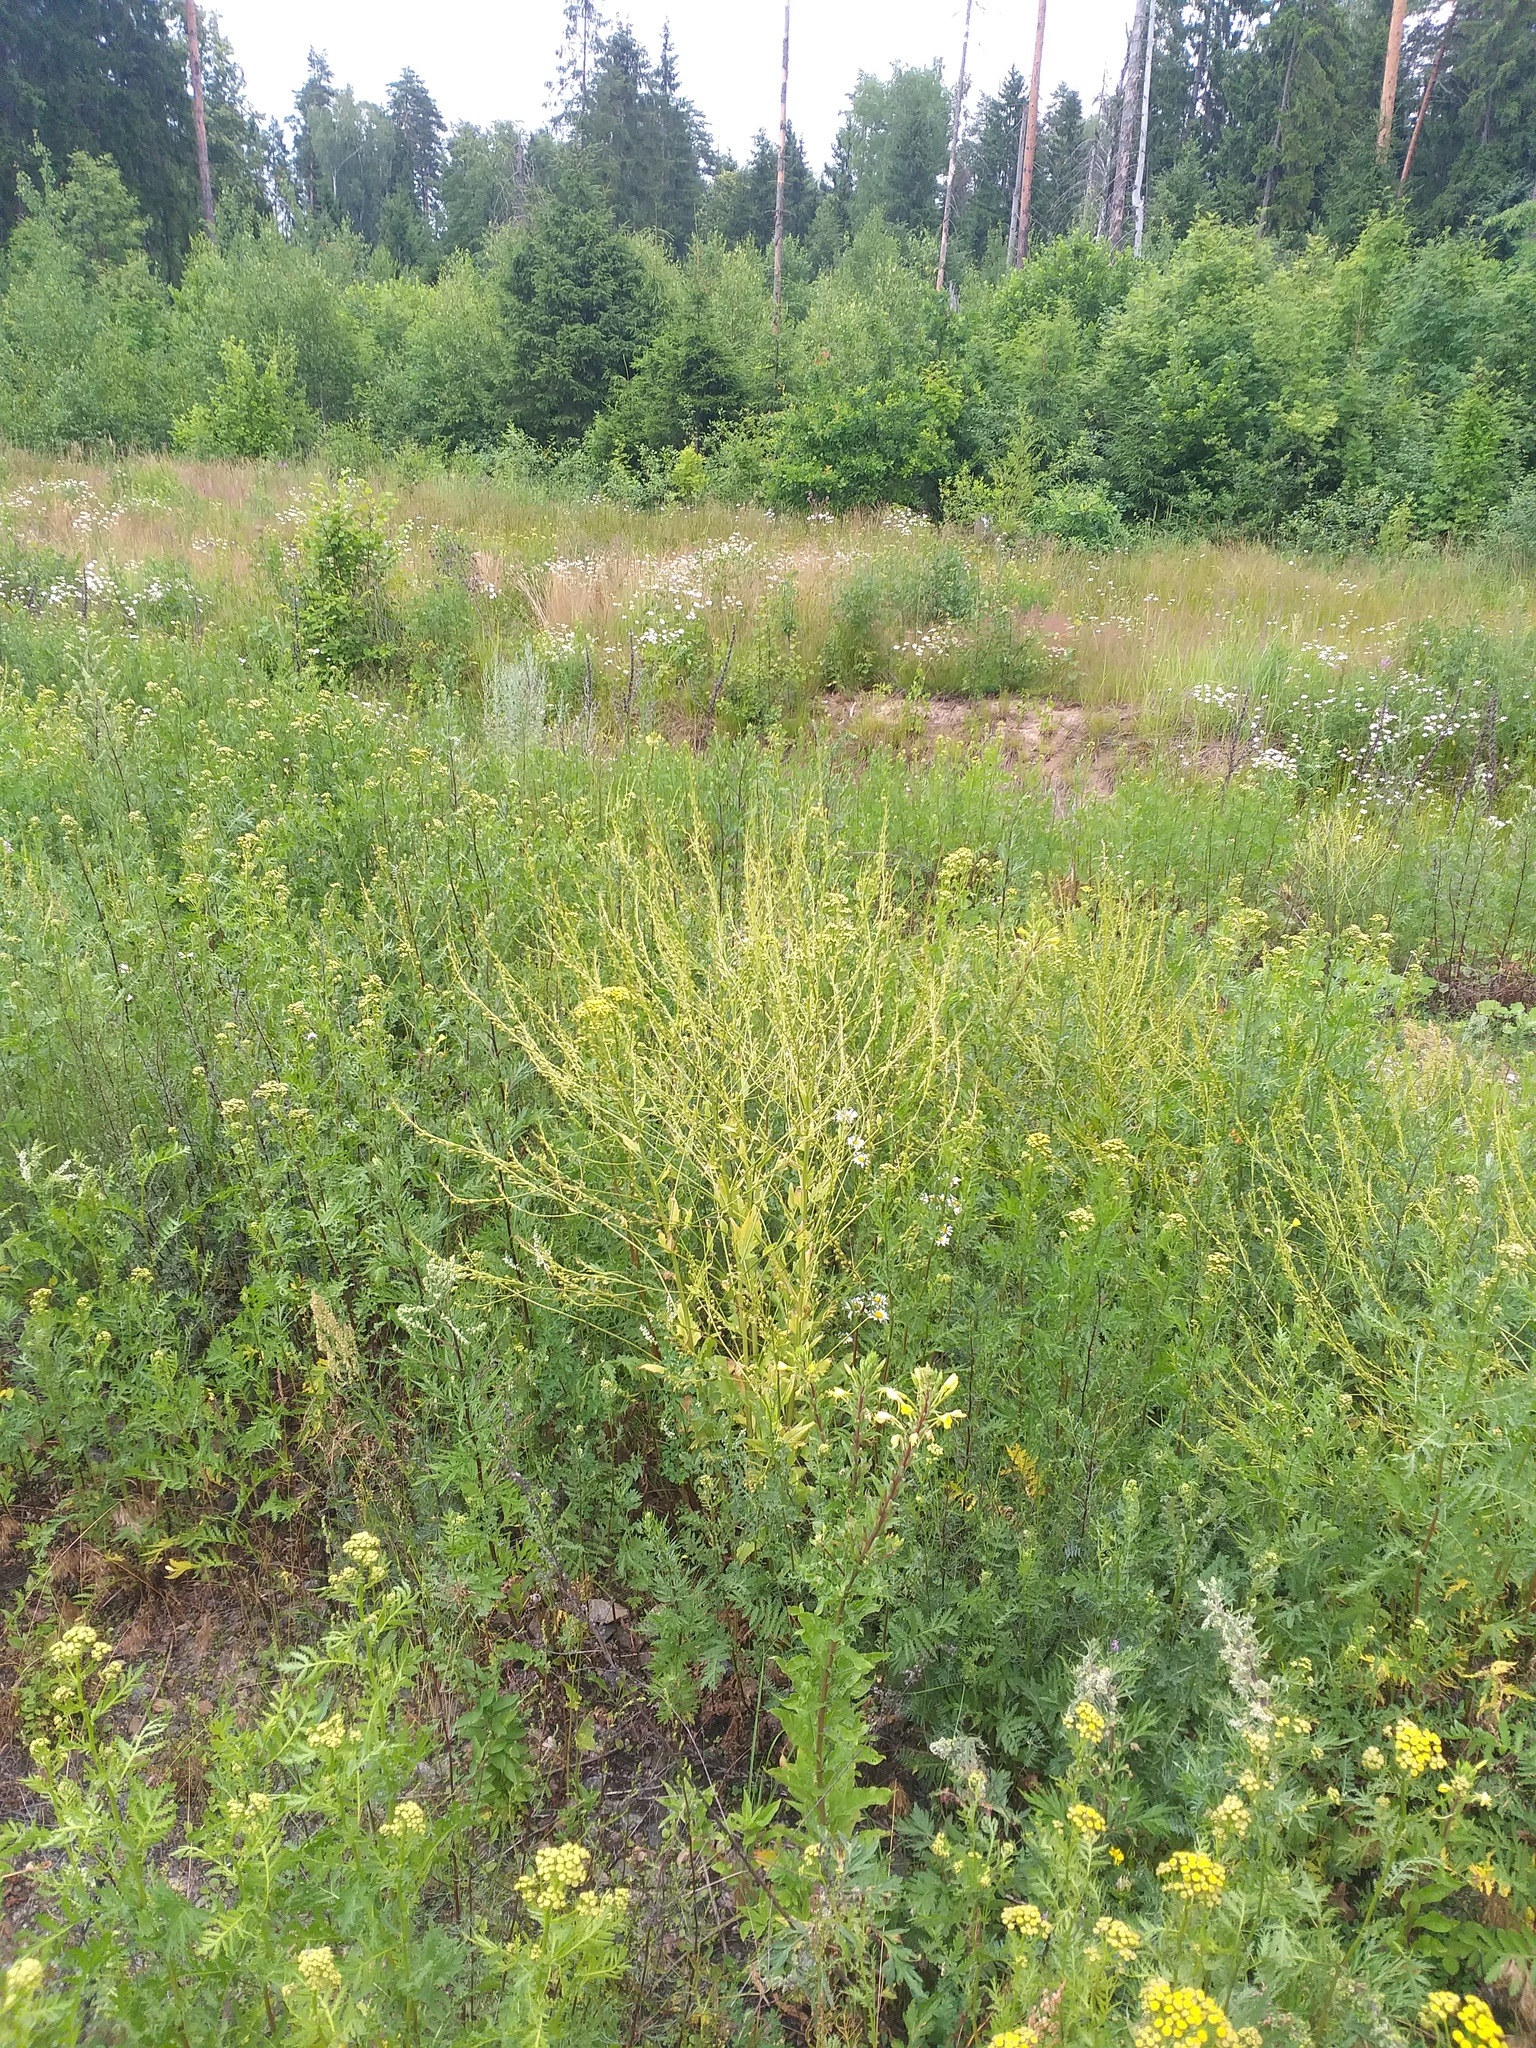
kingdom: Plantae
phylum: Tracheophyta
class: Magnoliopsida
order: Brassicales
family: Brassicaceae
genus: Bunias
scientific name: Bunias orientalis
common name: Warty-cabbage
